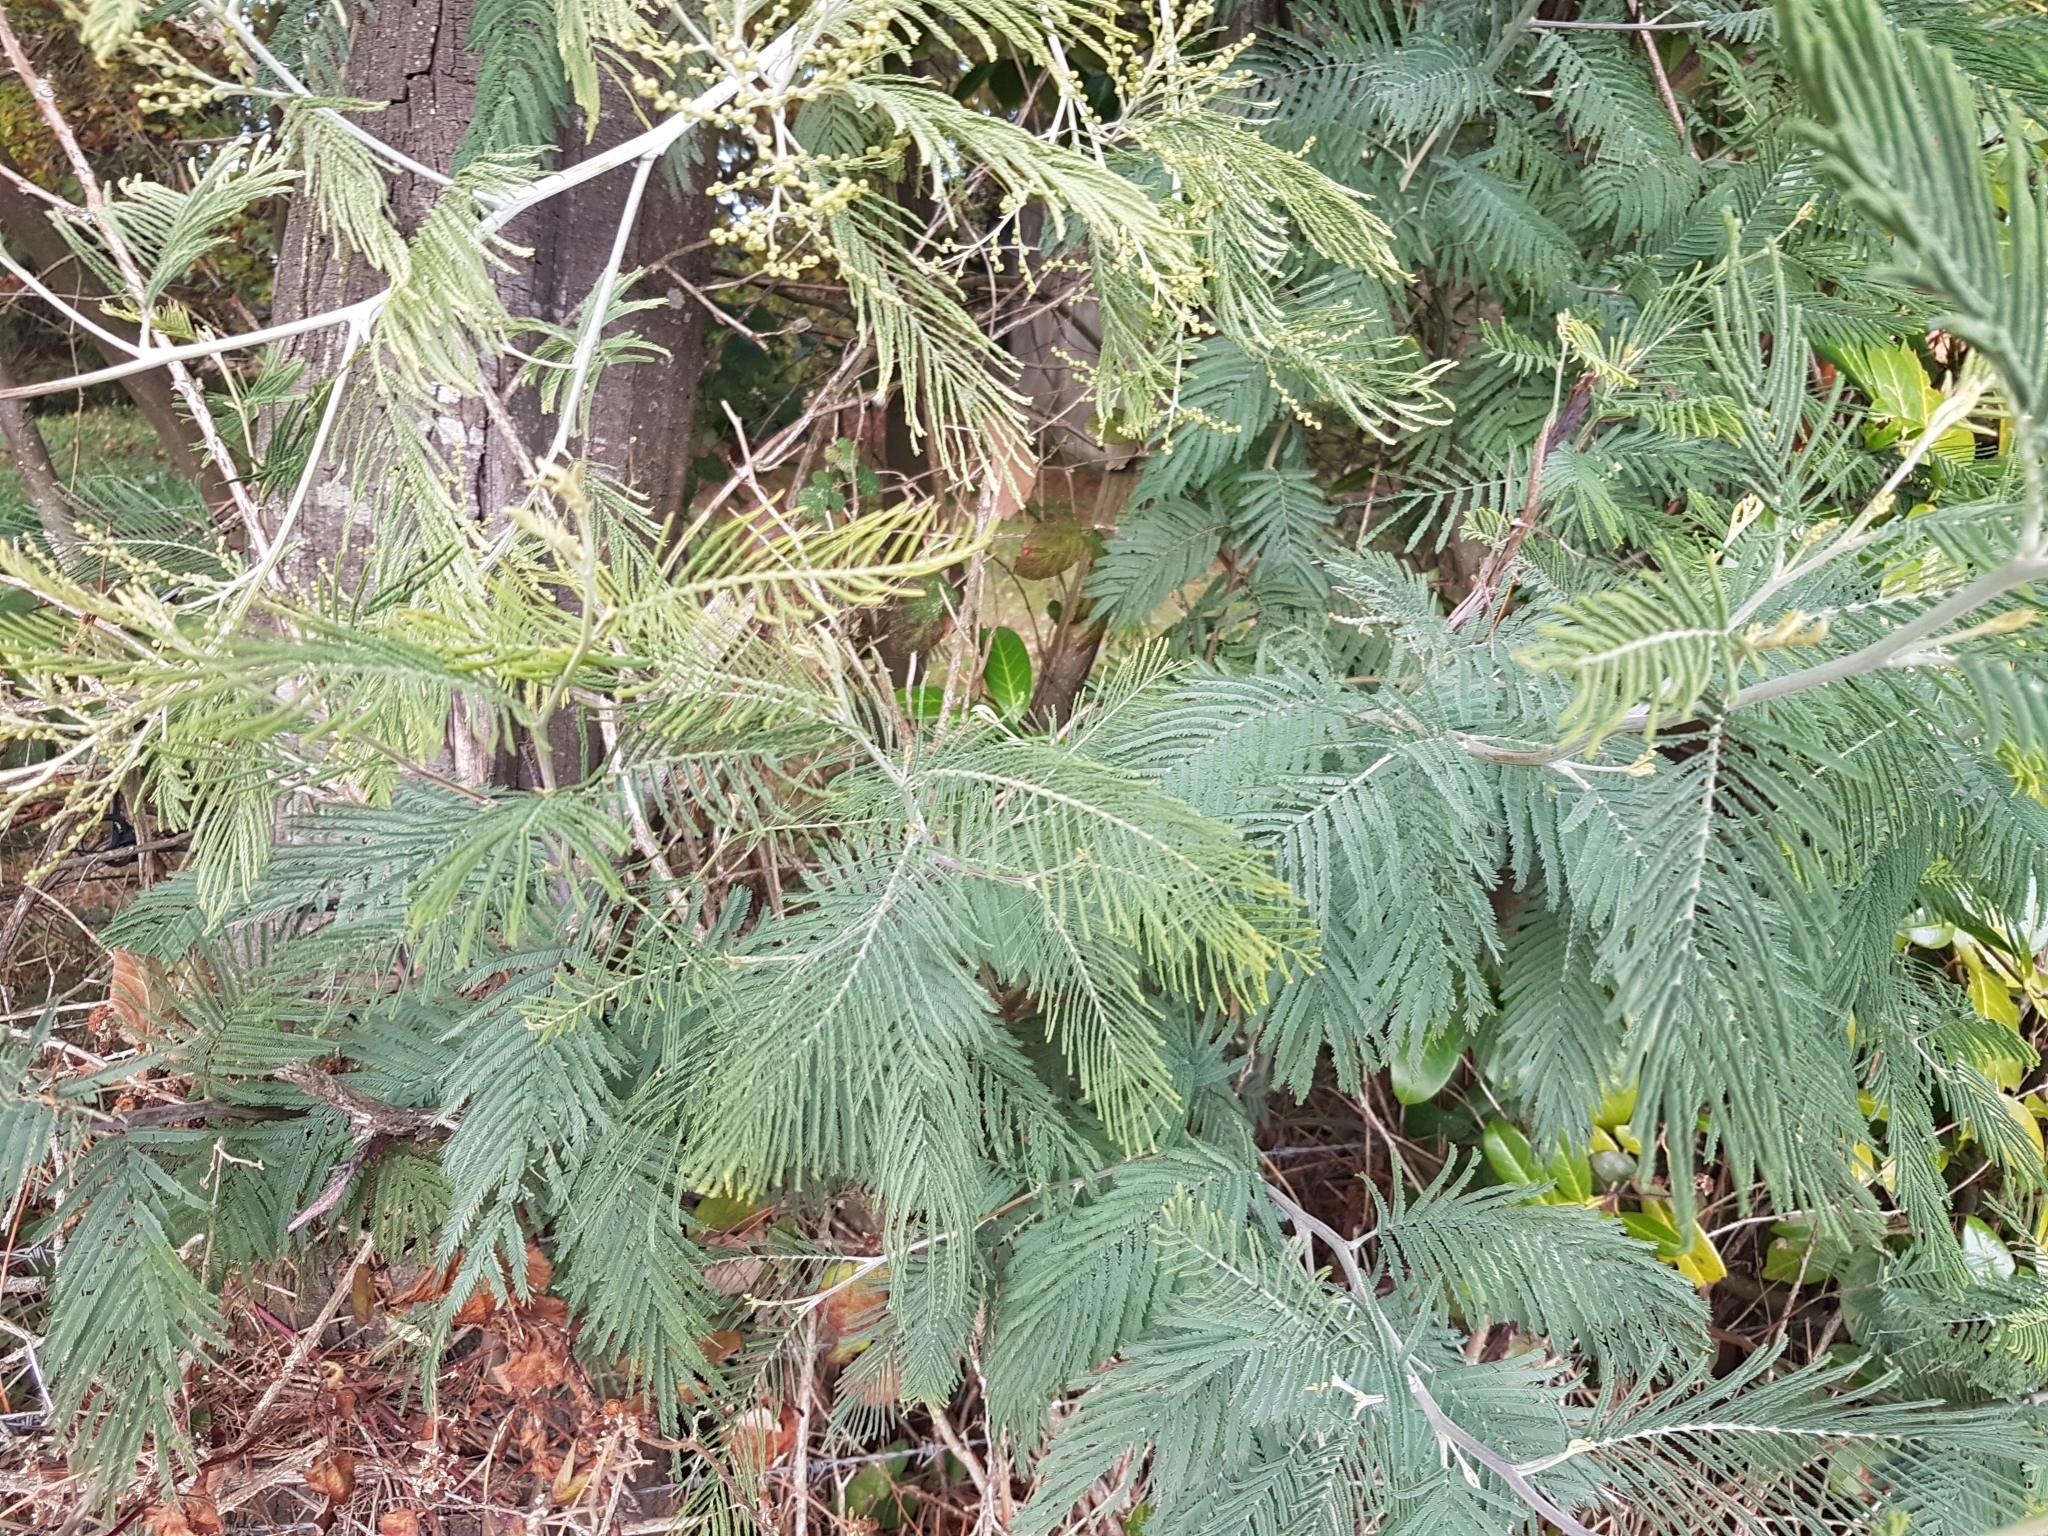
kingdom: Plantae
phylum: Tracheophyta
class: Magnoliopsida
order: Fabales
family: Fabaceae
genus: Acacia
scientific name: Acacia dealbata
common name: Silver wattle
